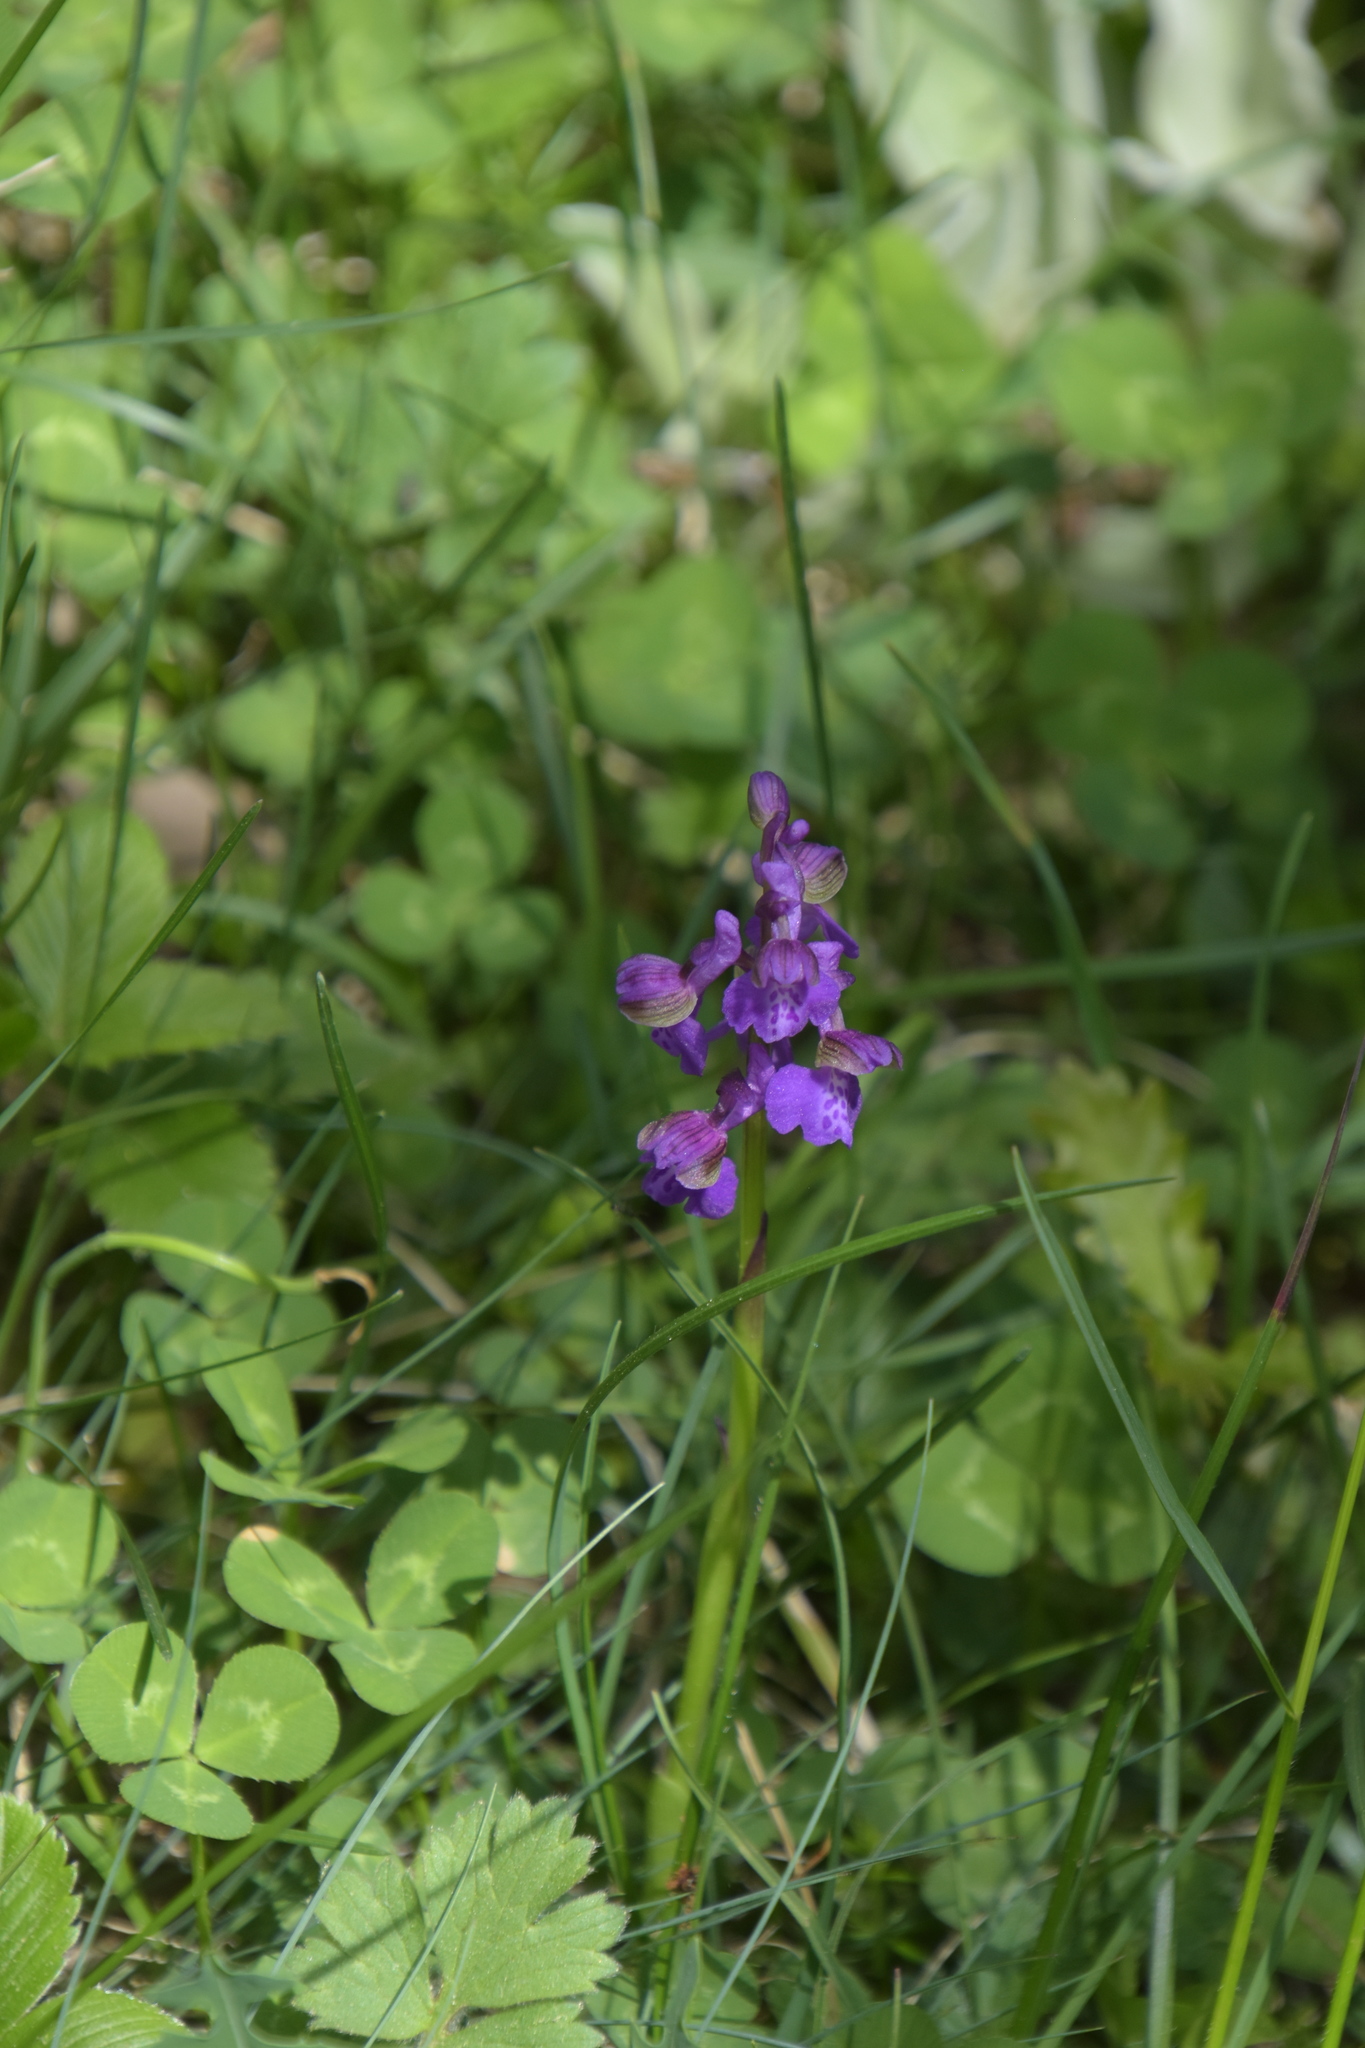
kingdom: Plantae
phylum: Tracheophyta
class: Liliopsida
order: Asparagales
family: Orchidaceae
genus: Anacamptis
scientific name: Anacamptis morio
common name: Green-winged orchid
